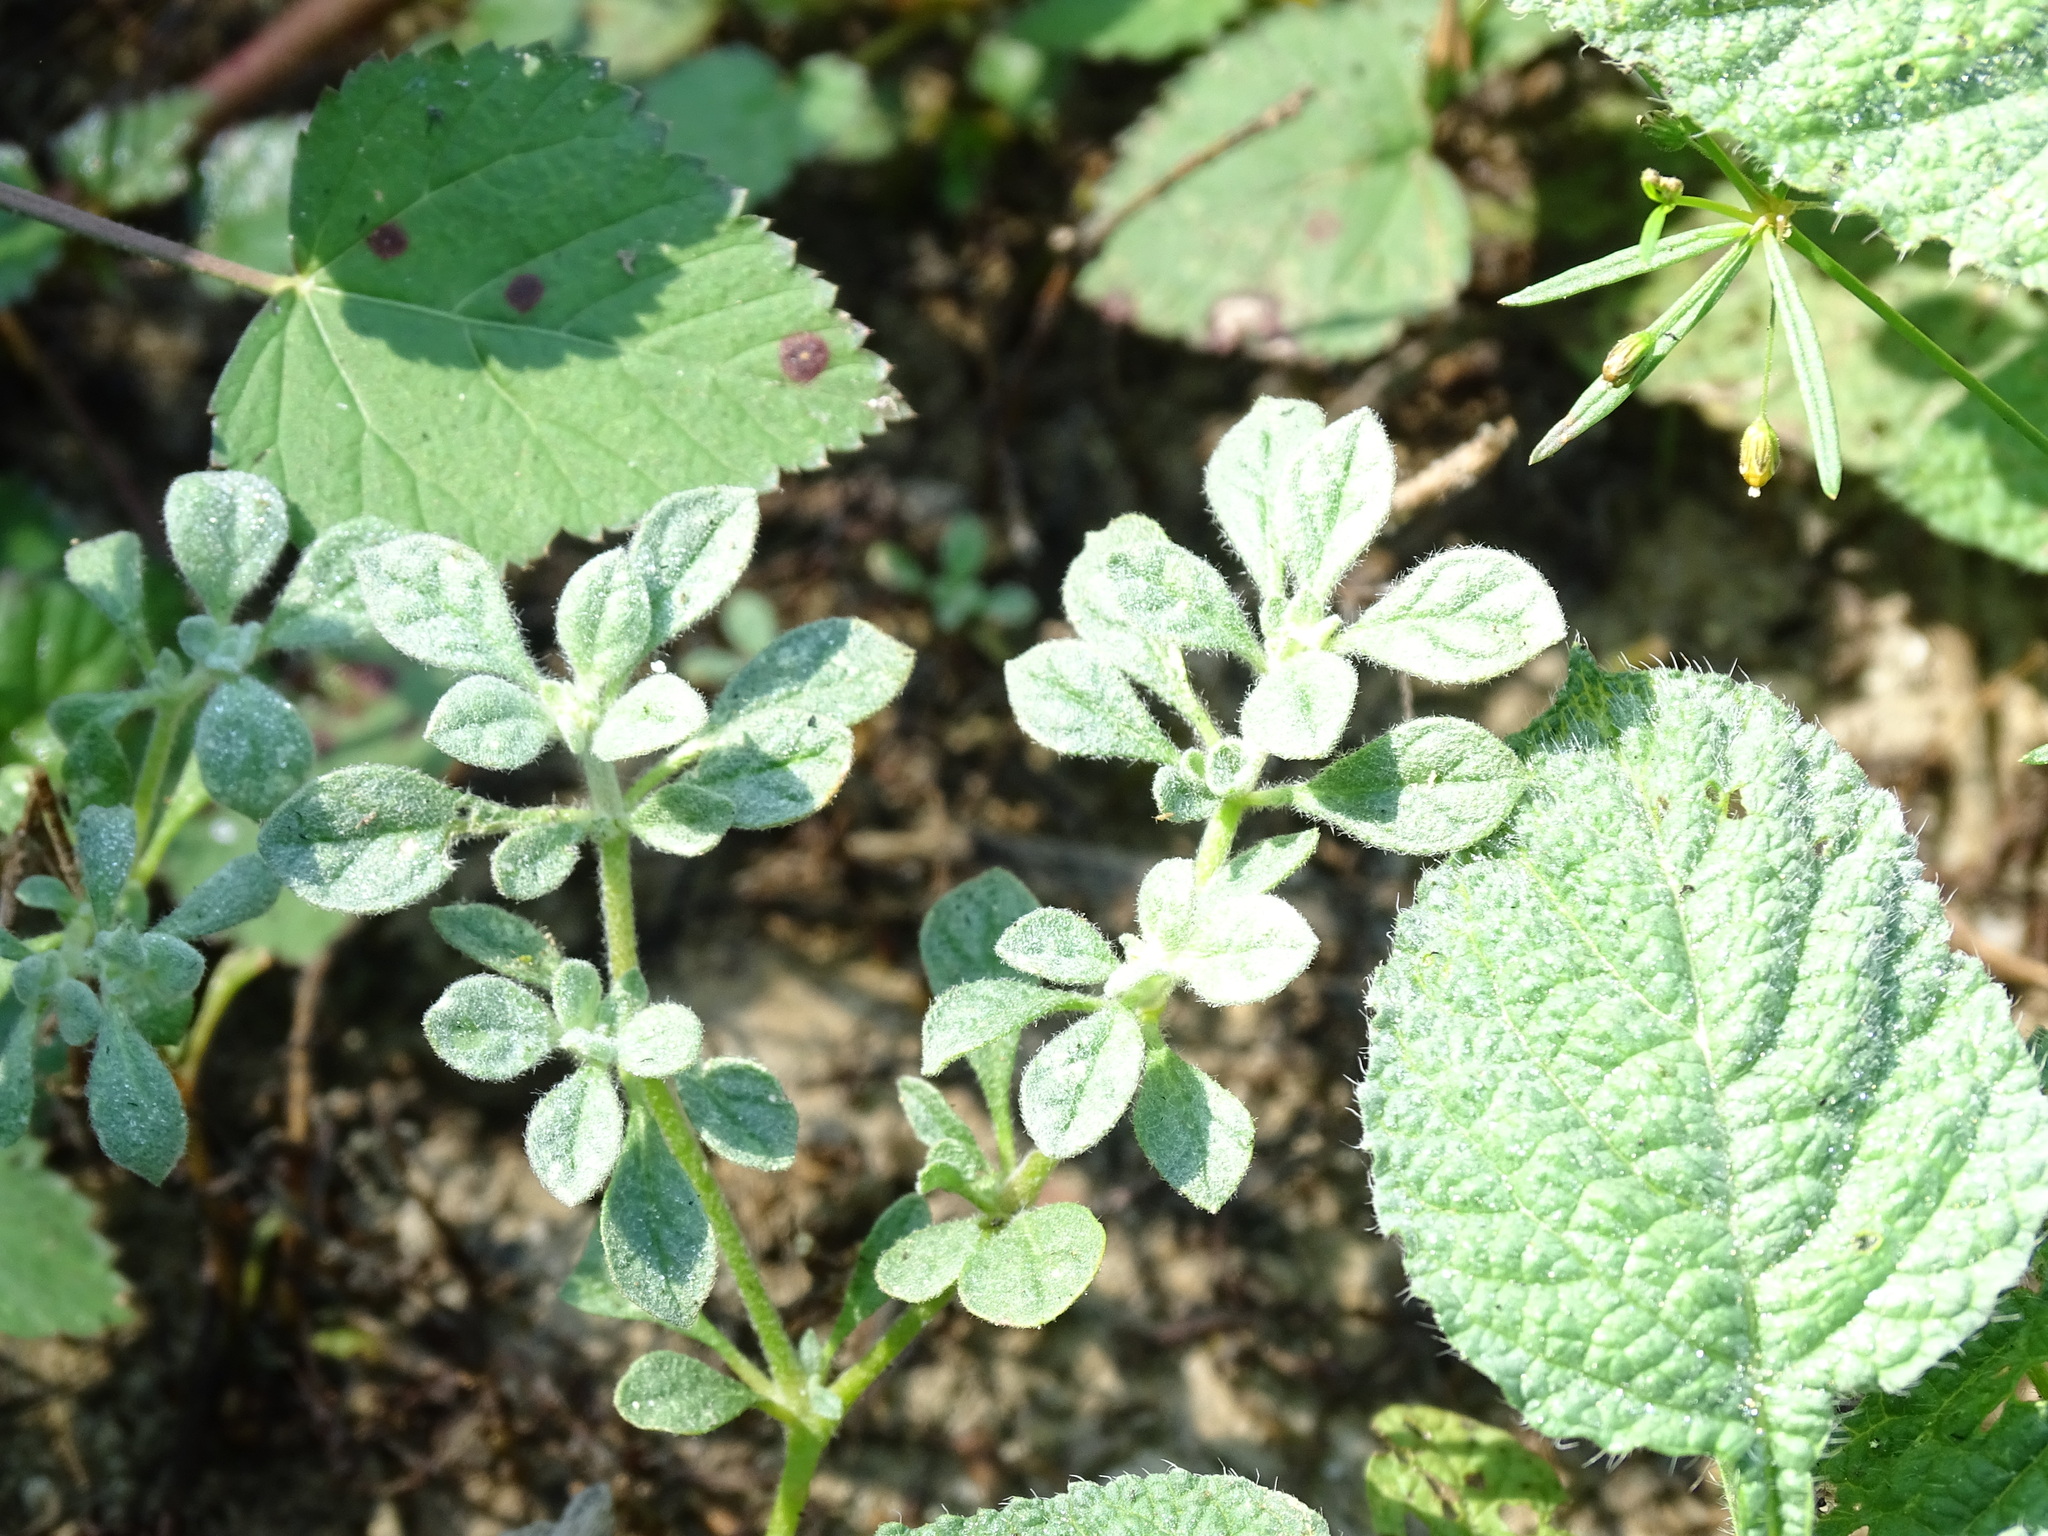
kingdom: Plantae
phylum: Tracheophyta
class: Magnoliopsida
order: Caryophyllales
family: Molluginaceae
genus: Glinus
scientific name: Glinus radiatus
